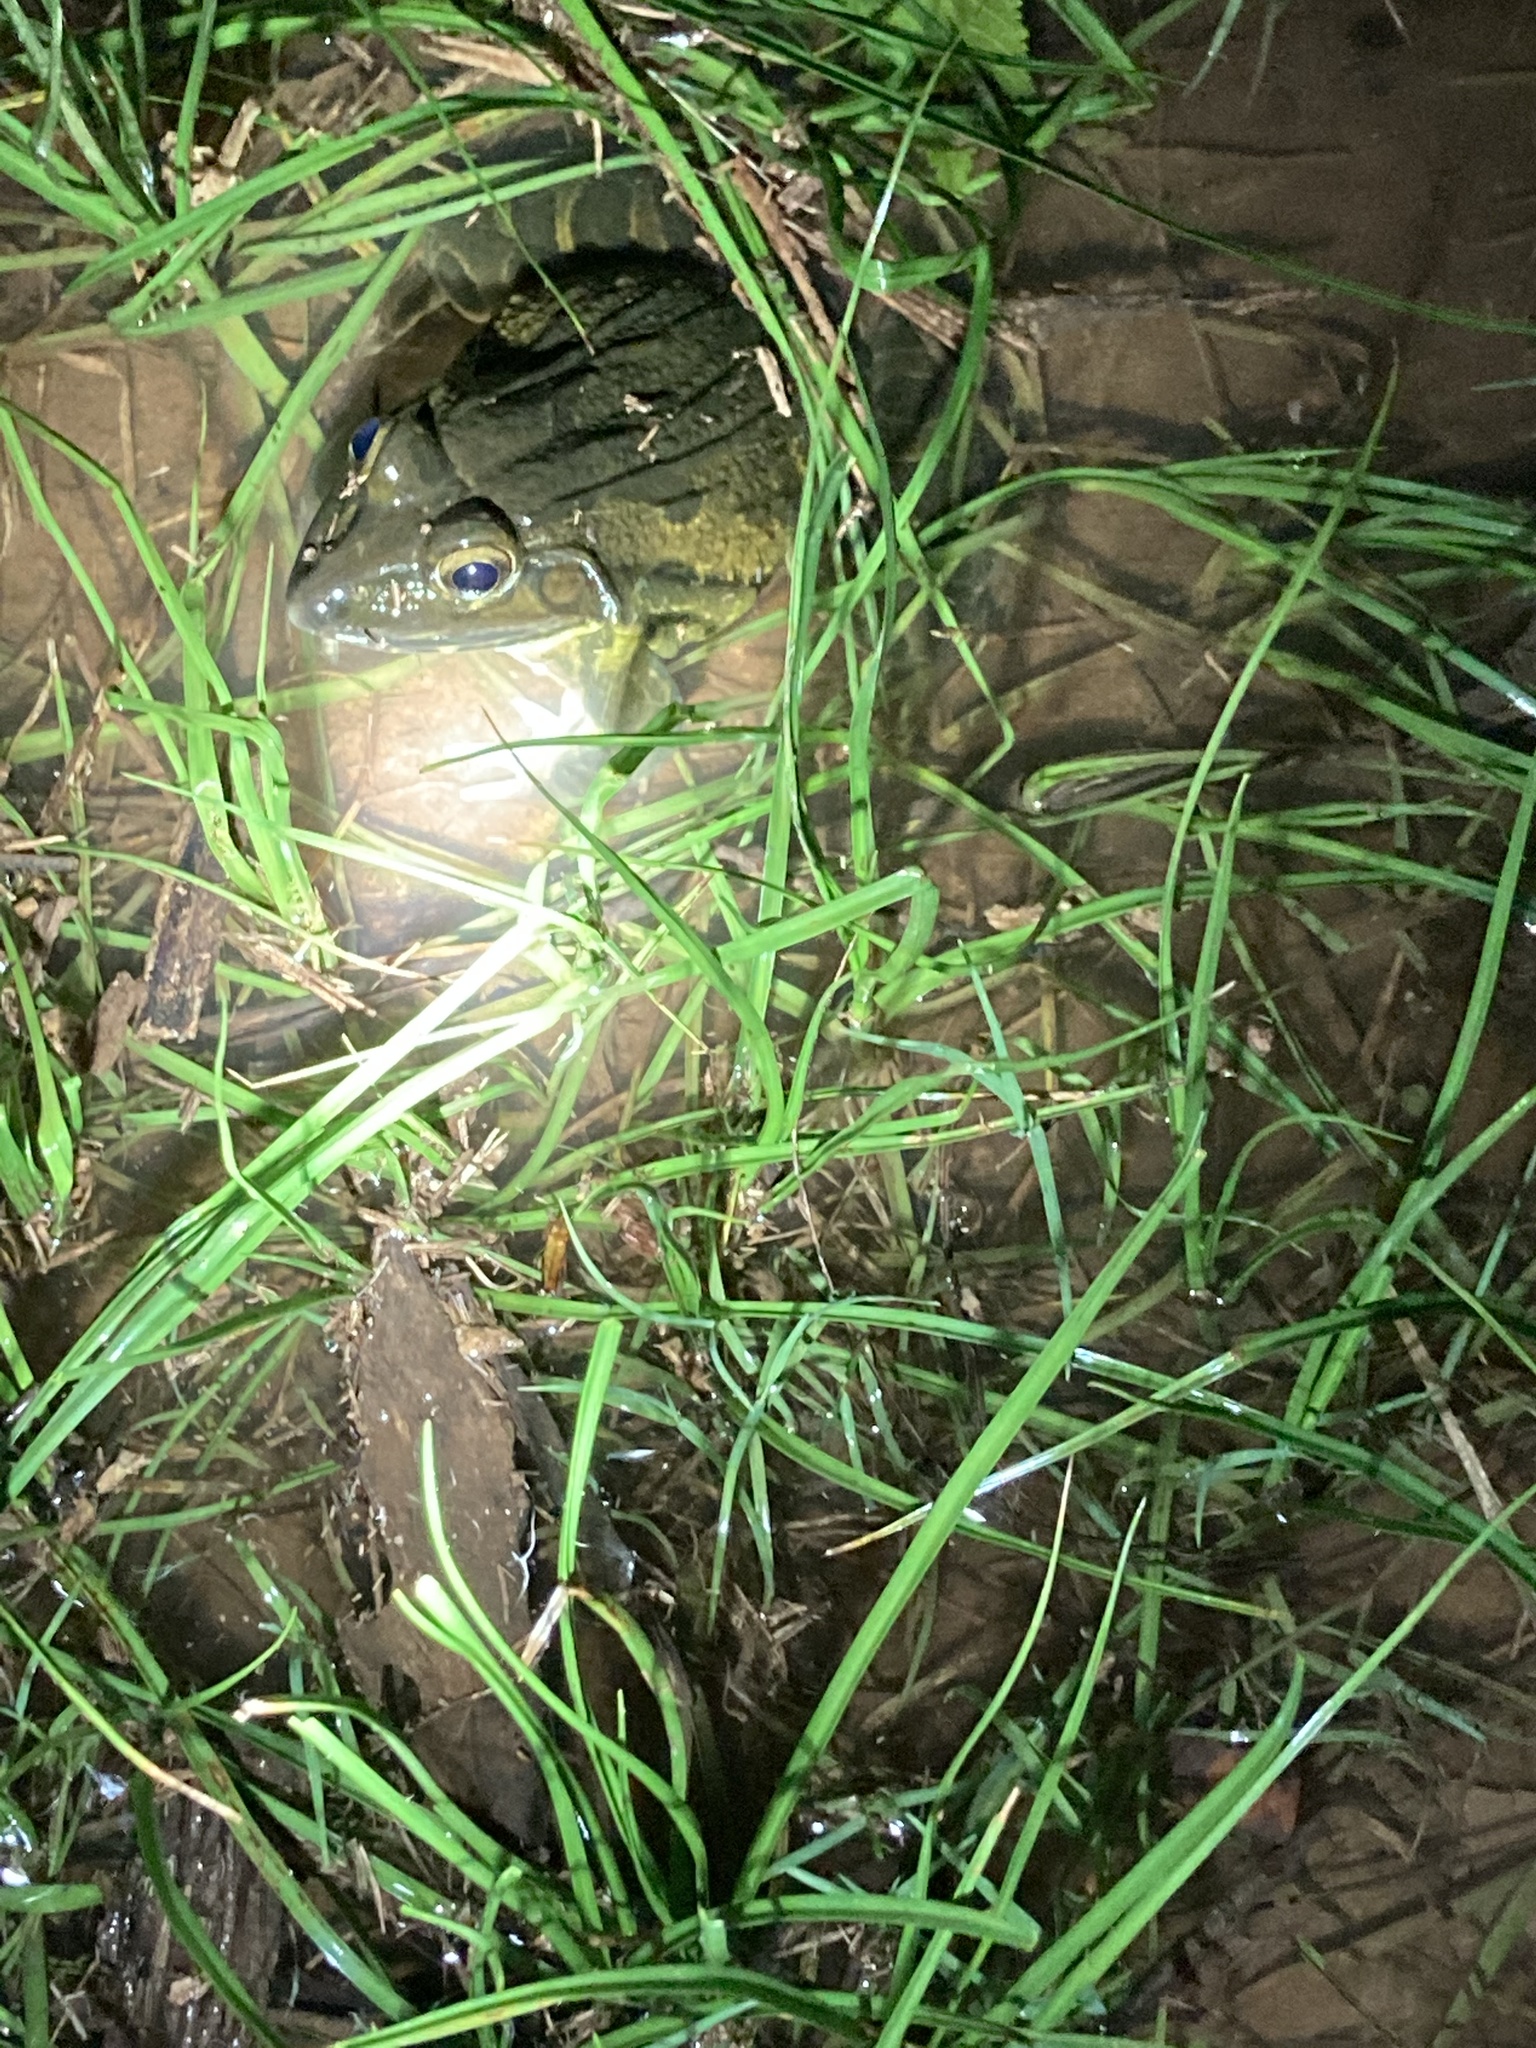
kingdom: Animalia
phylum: Chordata
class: Amphibia
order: Anura
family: Dicroglossidae
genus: Hoplobatrachus
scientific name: Hoplobatrachus tigerinus
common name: Indian bullfrog
